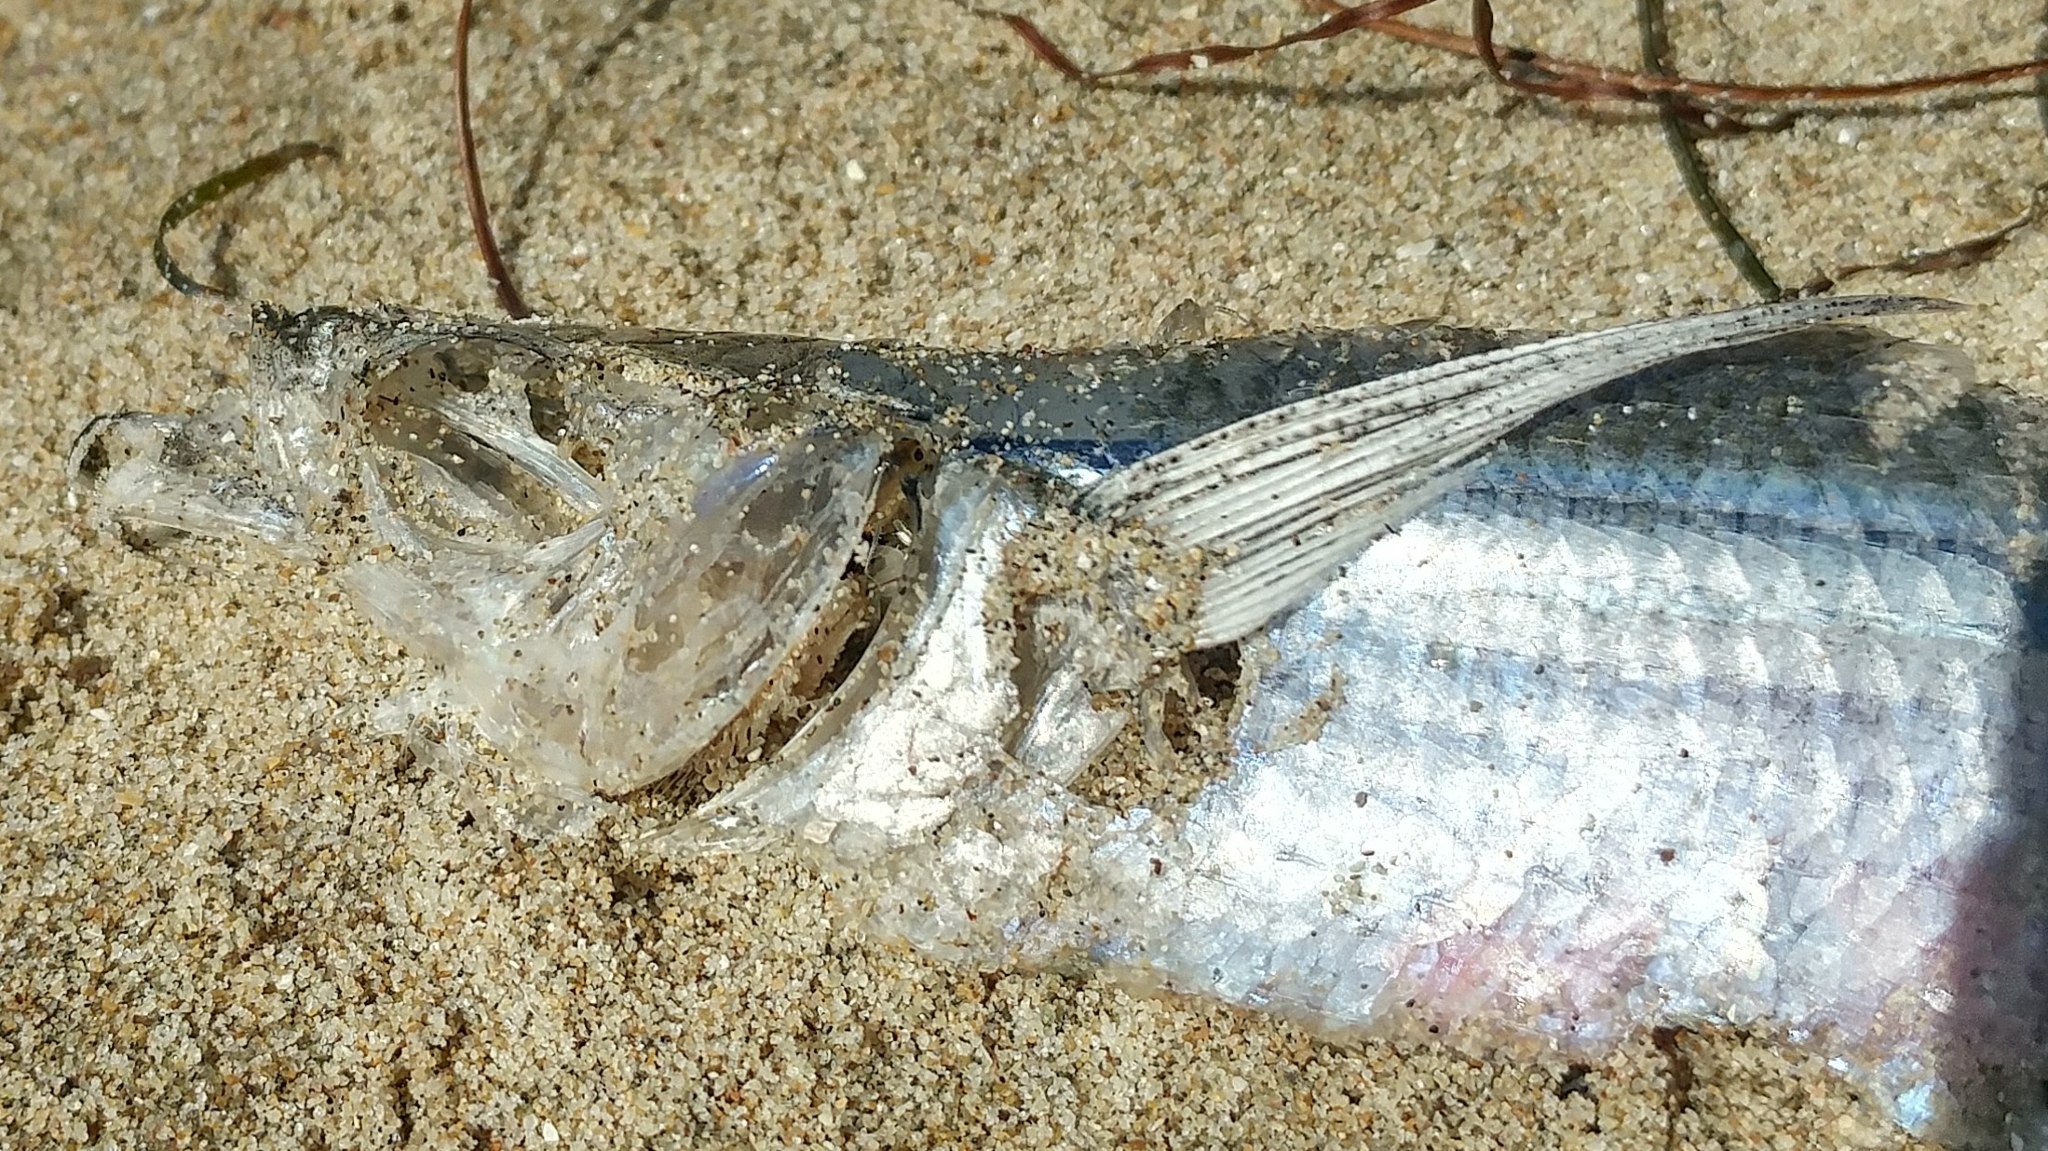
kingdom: Animalia
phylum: Chordata
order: Mugiliformes
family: Mugilidae
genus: Mugil
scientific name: Mugil cephalus
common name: Grey mullet
